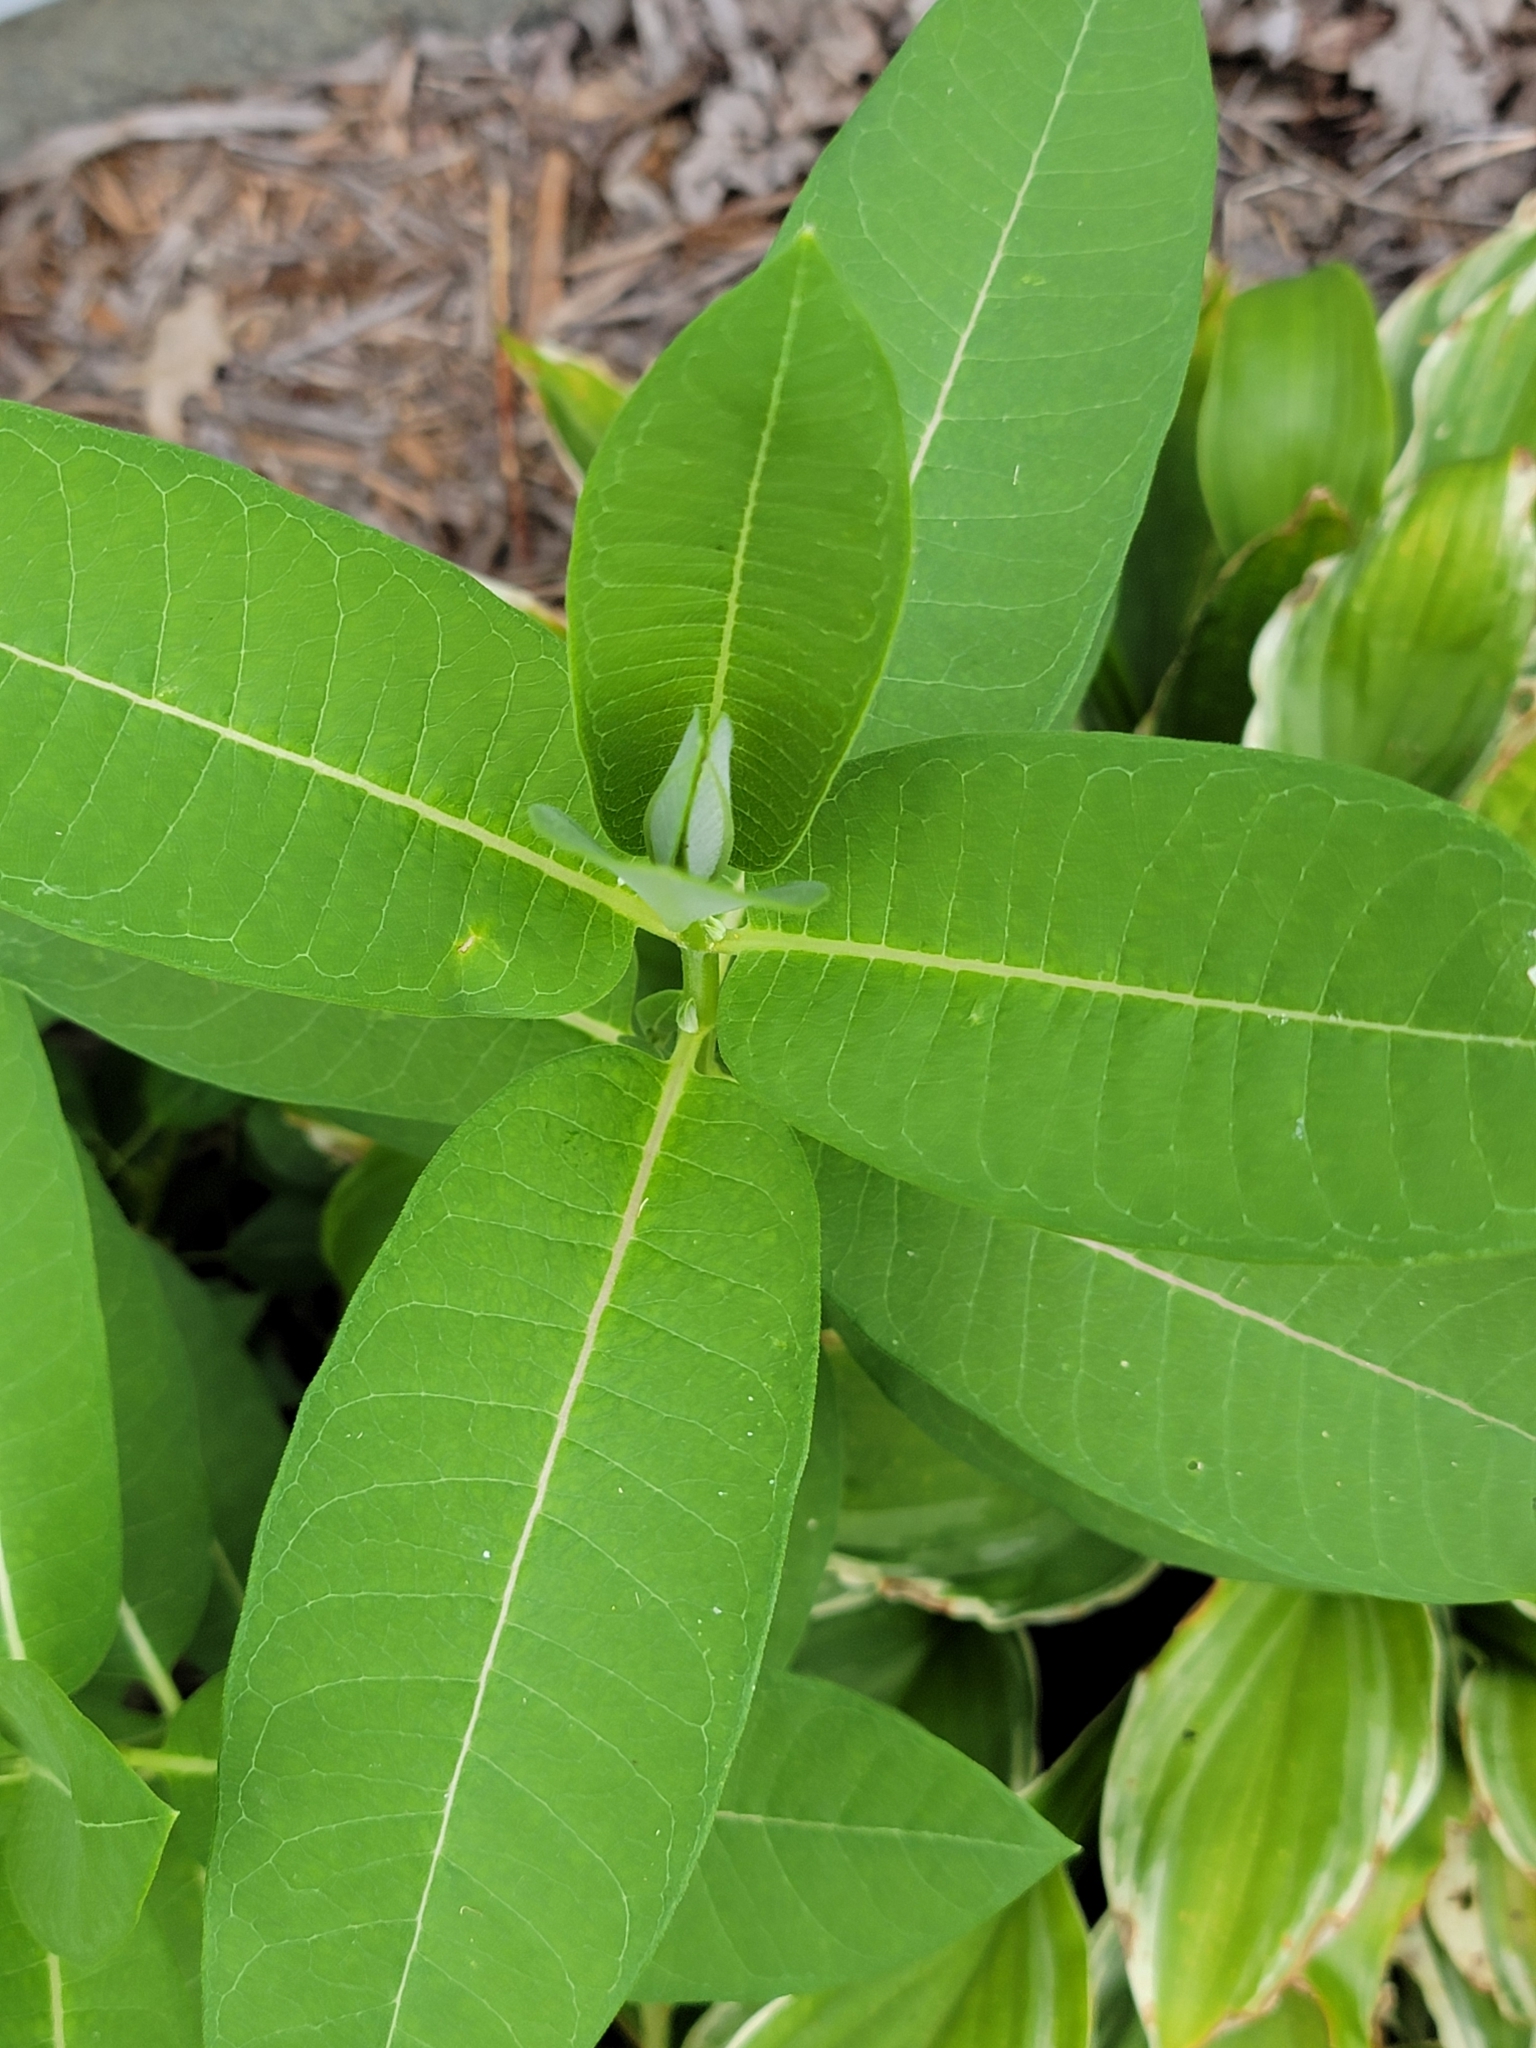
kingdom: Plantae
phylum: Tracheophyta
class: Magnoliopsida
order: Gentianales
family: Apocynaceae
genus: Asclepias
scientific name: Asclepias syriaca
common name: Common milkweed
